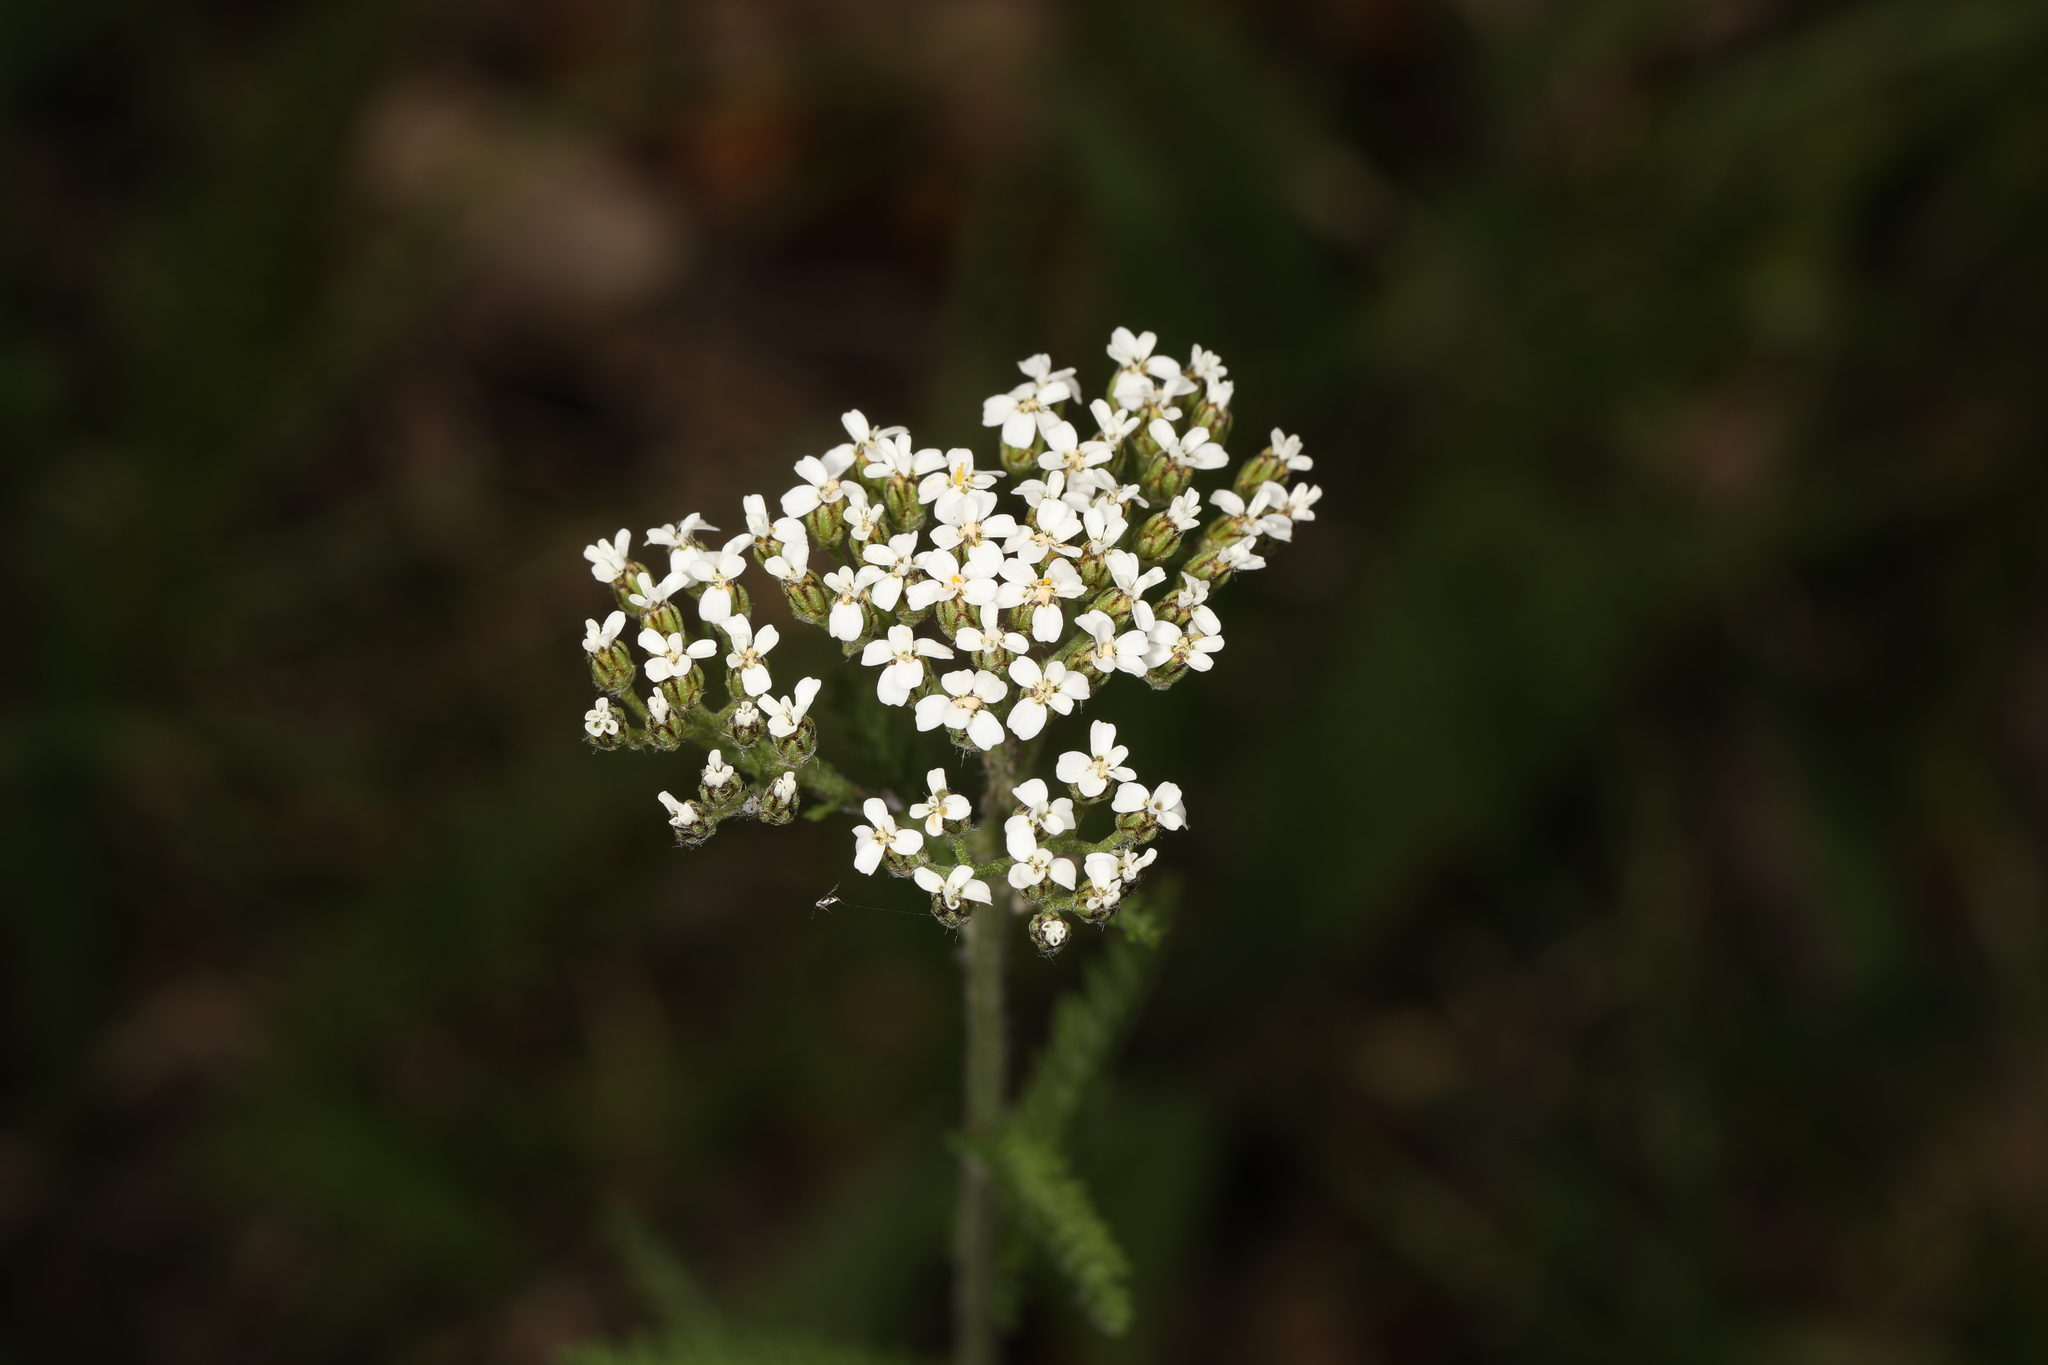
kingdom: Plantae
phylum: Tracheophyta
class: Magnoliopsida
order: Asterales
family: Asteraceae
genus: Achillea
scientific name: Achillea millefolium
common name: Yarrow
